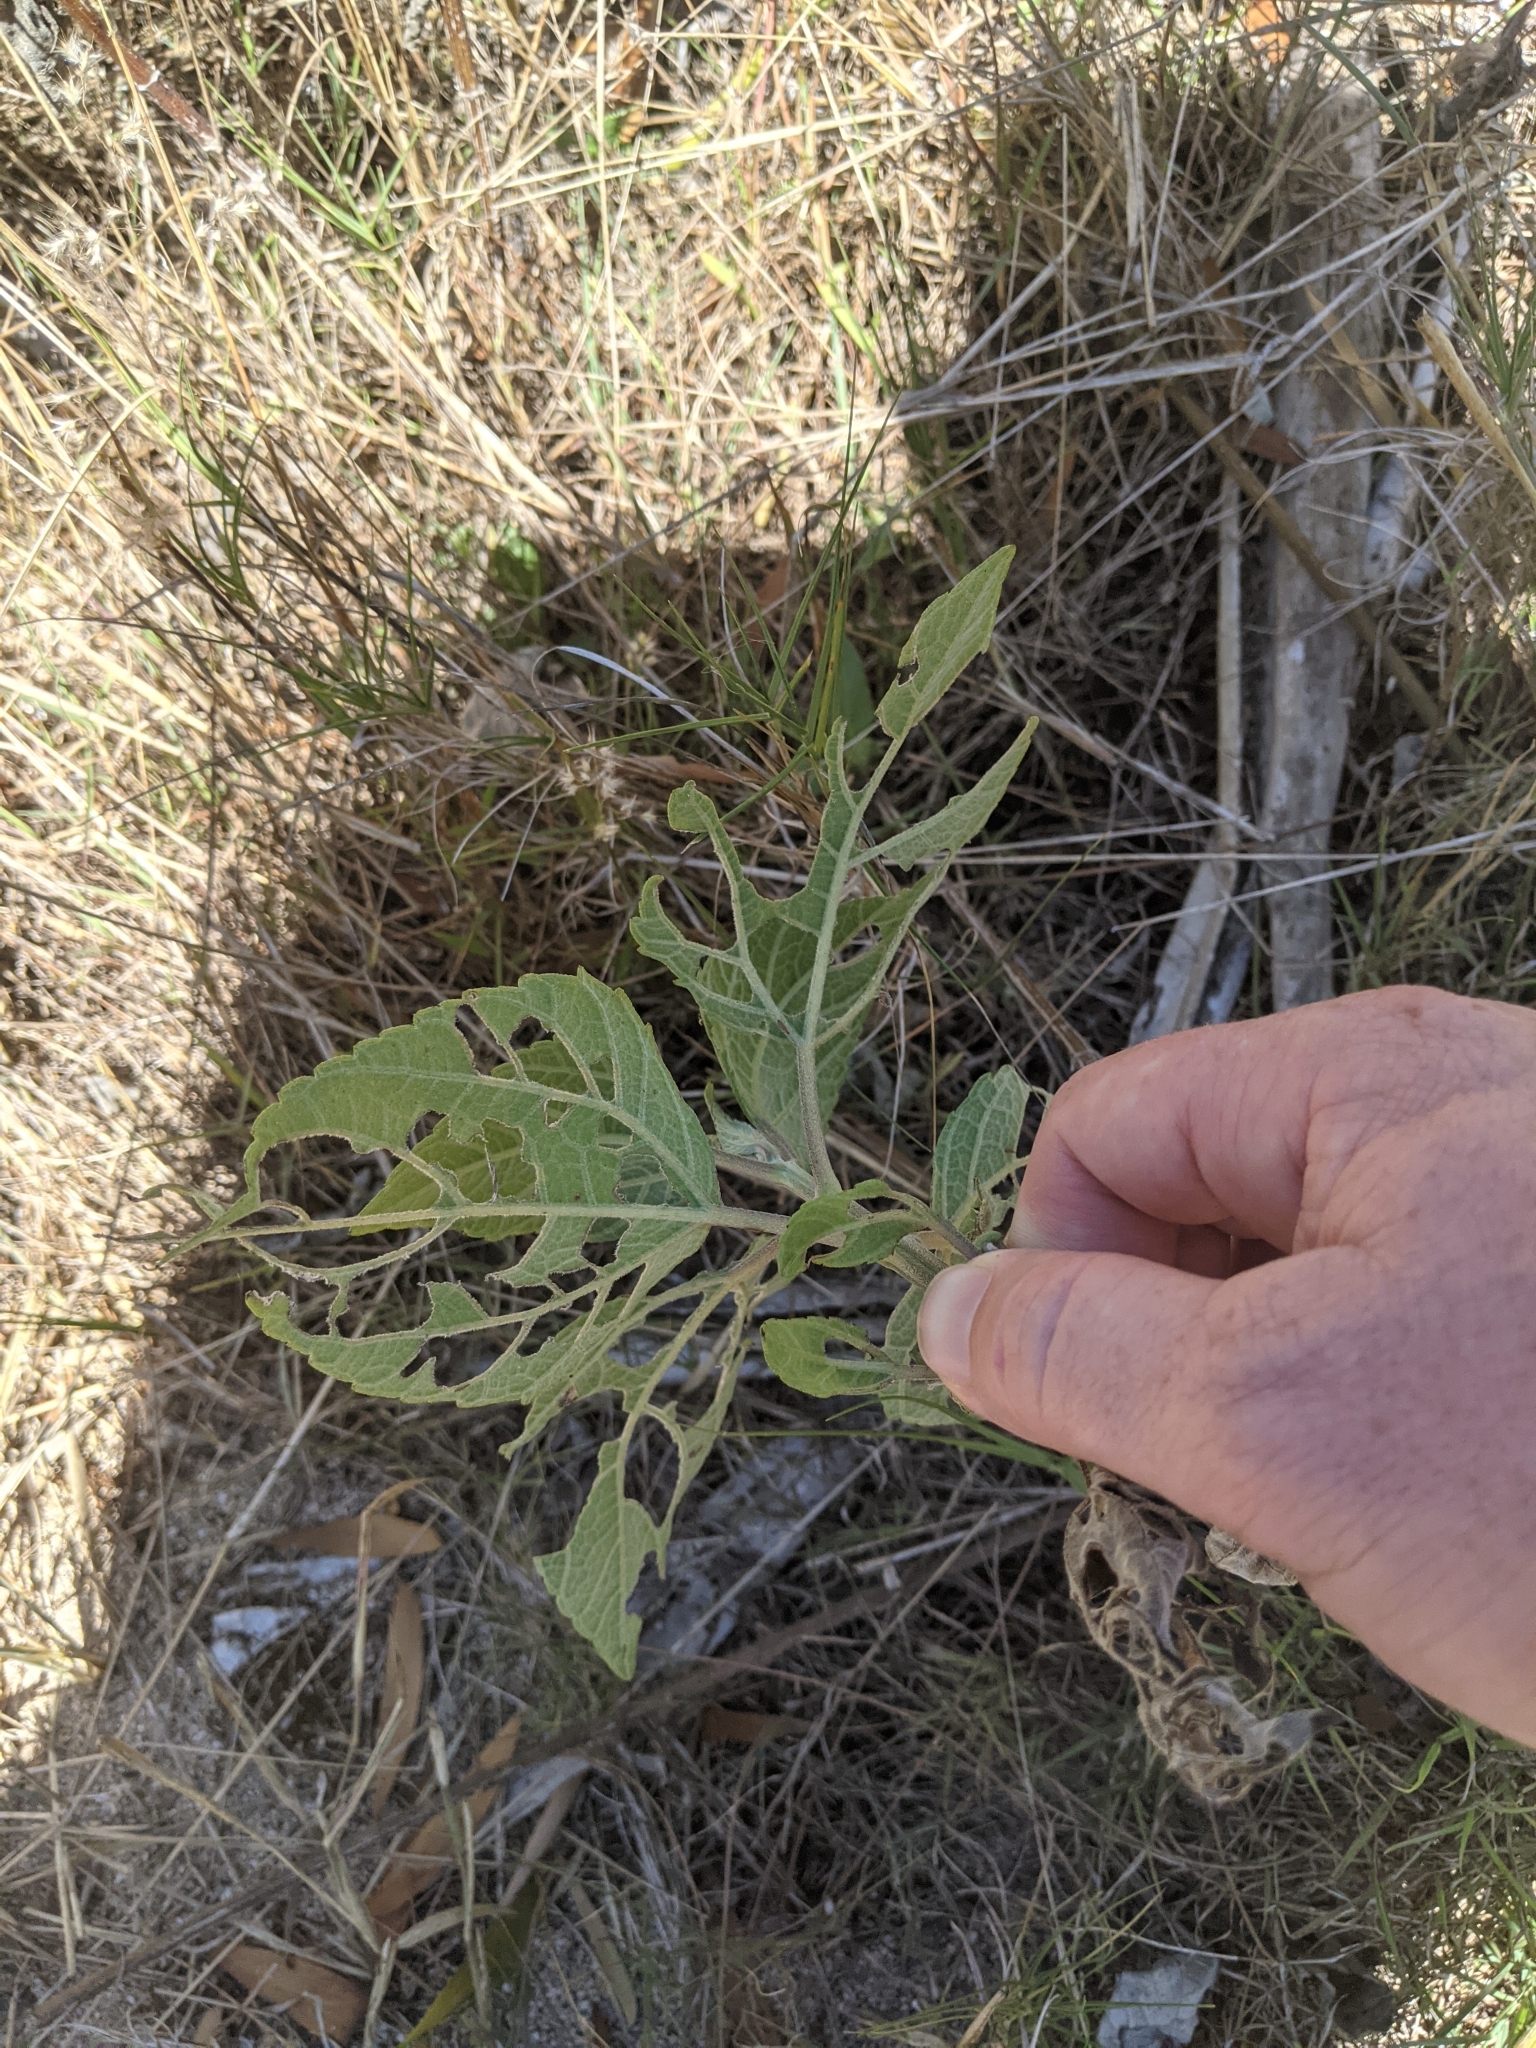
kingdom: Plantae
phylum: Tracheophyta
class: Magnoliopsida
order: Asterales
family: Asteraceae
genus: Wollastonia
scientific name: Wollastonia uniflora
